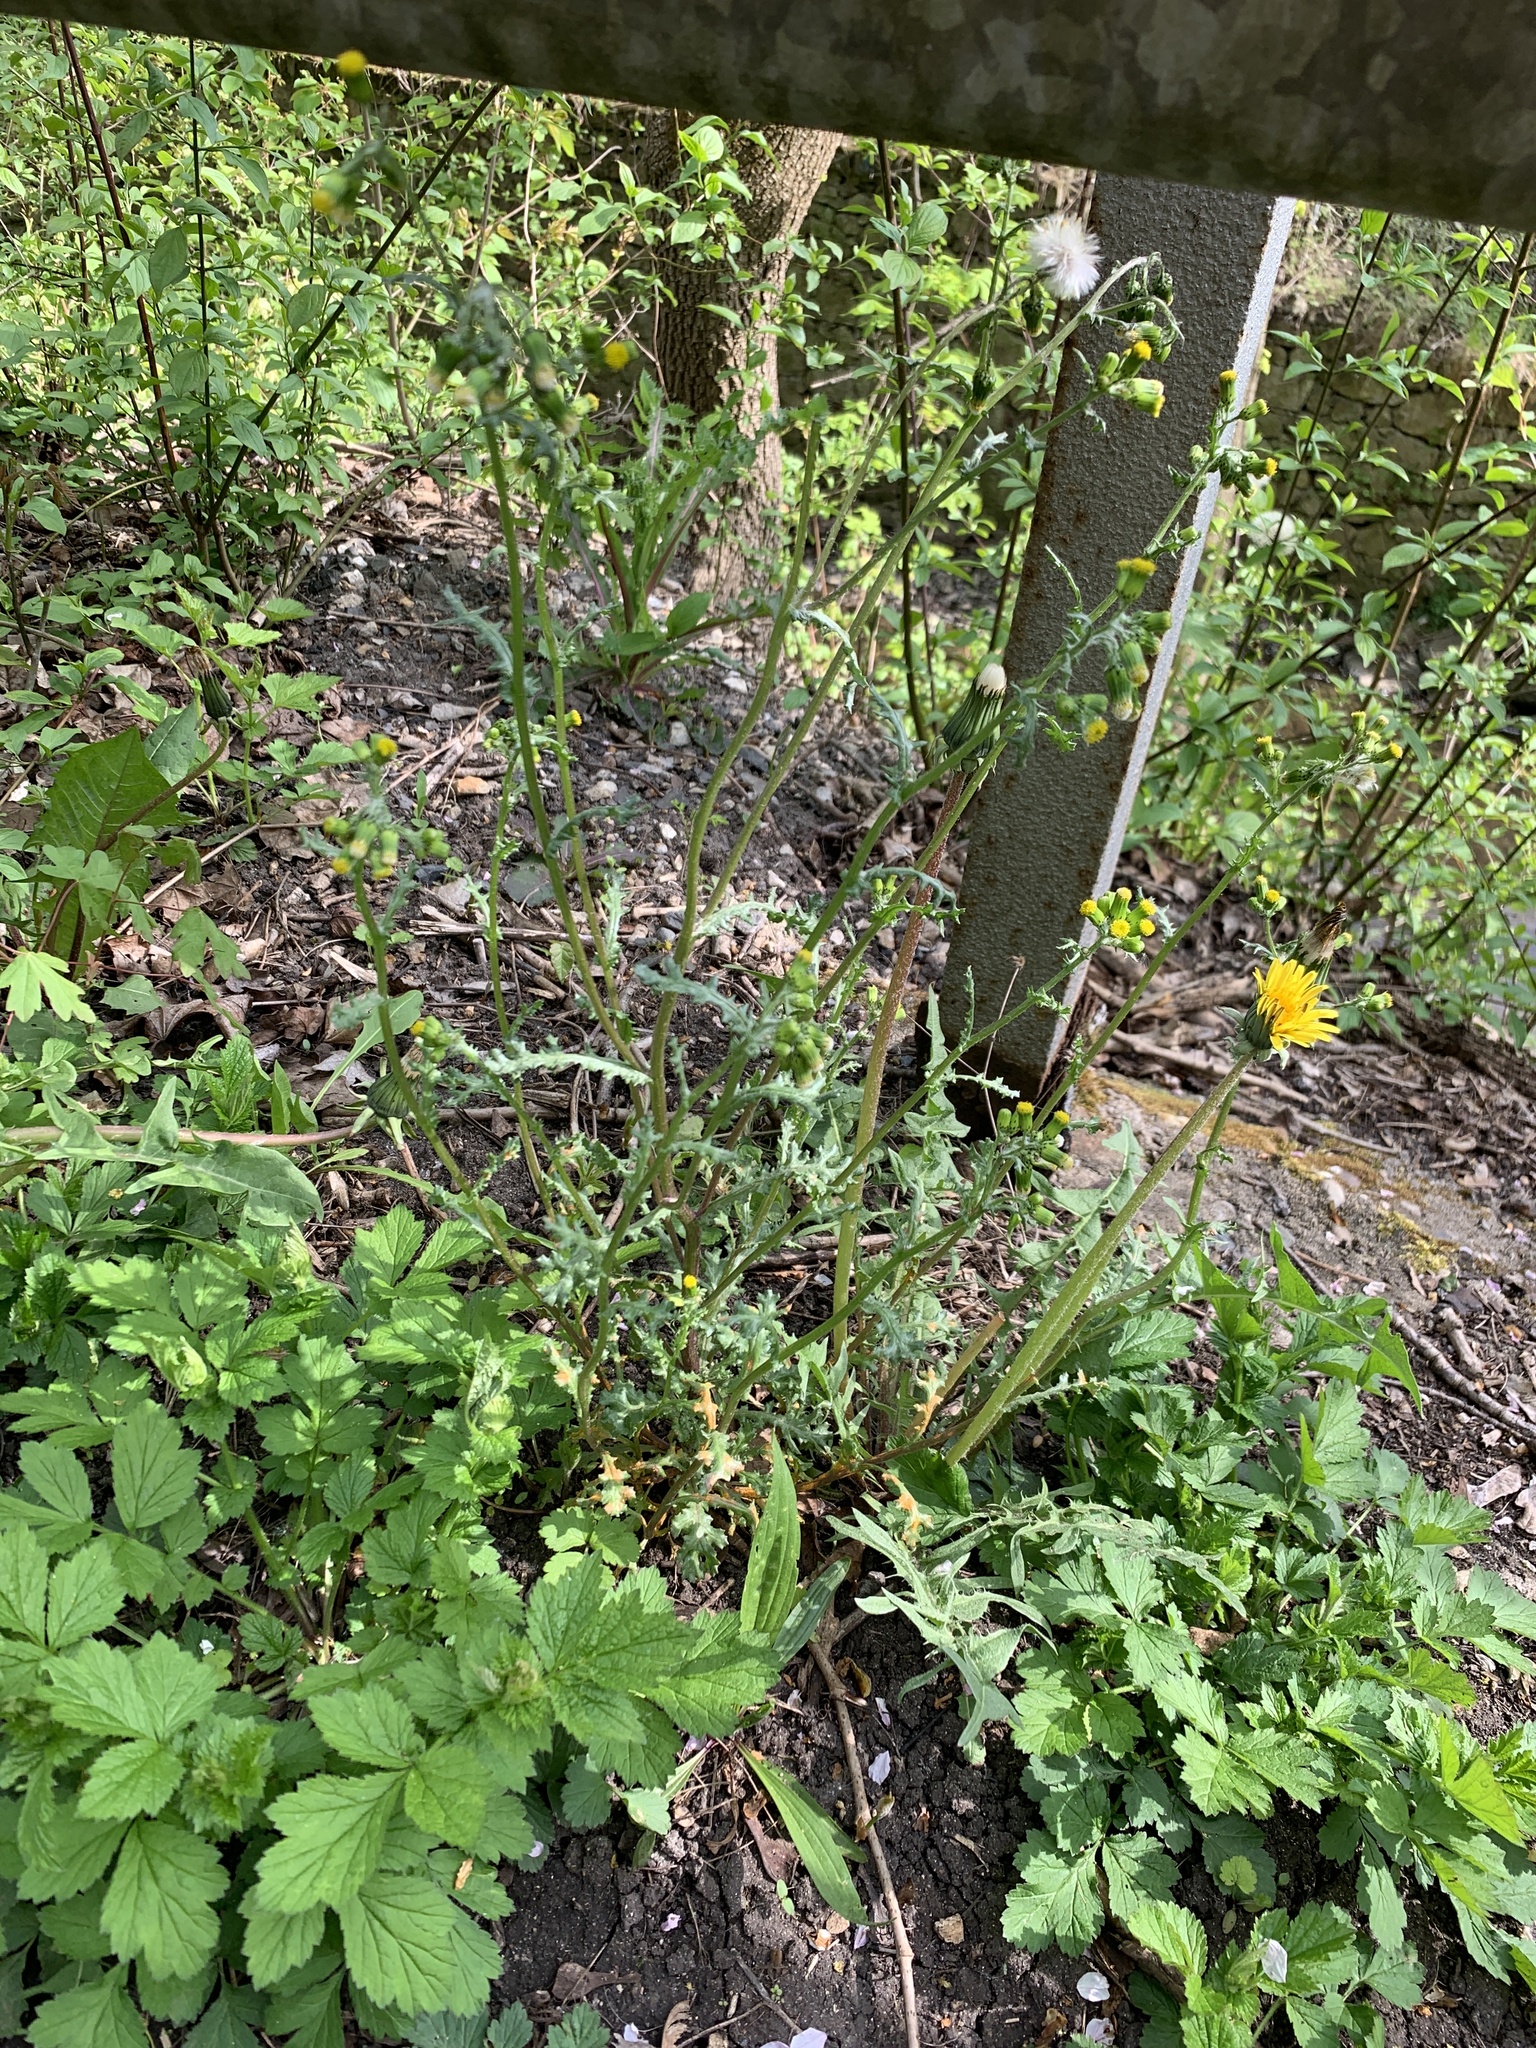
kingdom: Plantae
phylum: Tracheophyta
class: Magnoliopsida
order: Asterales
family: Asteraceae
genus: Senecio
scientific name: Senecio vulgaris
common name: Old-man-in-the-spring
